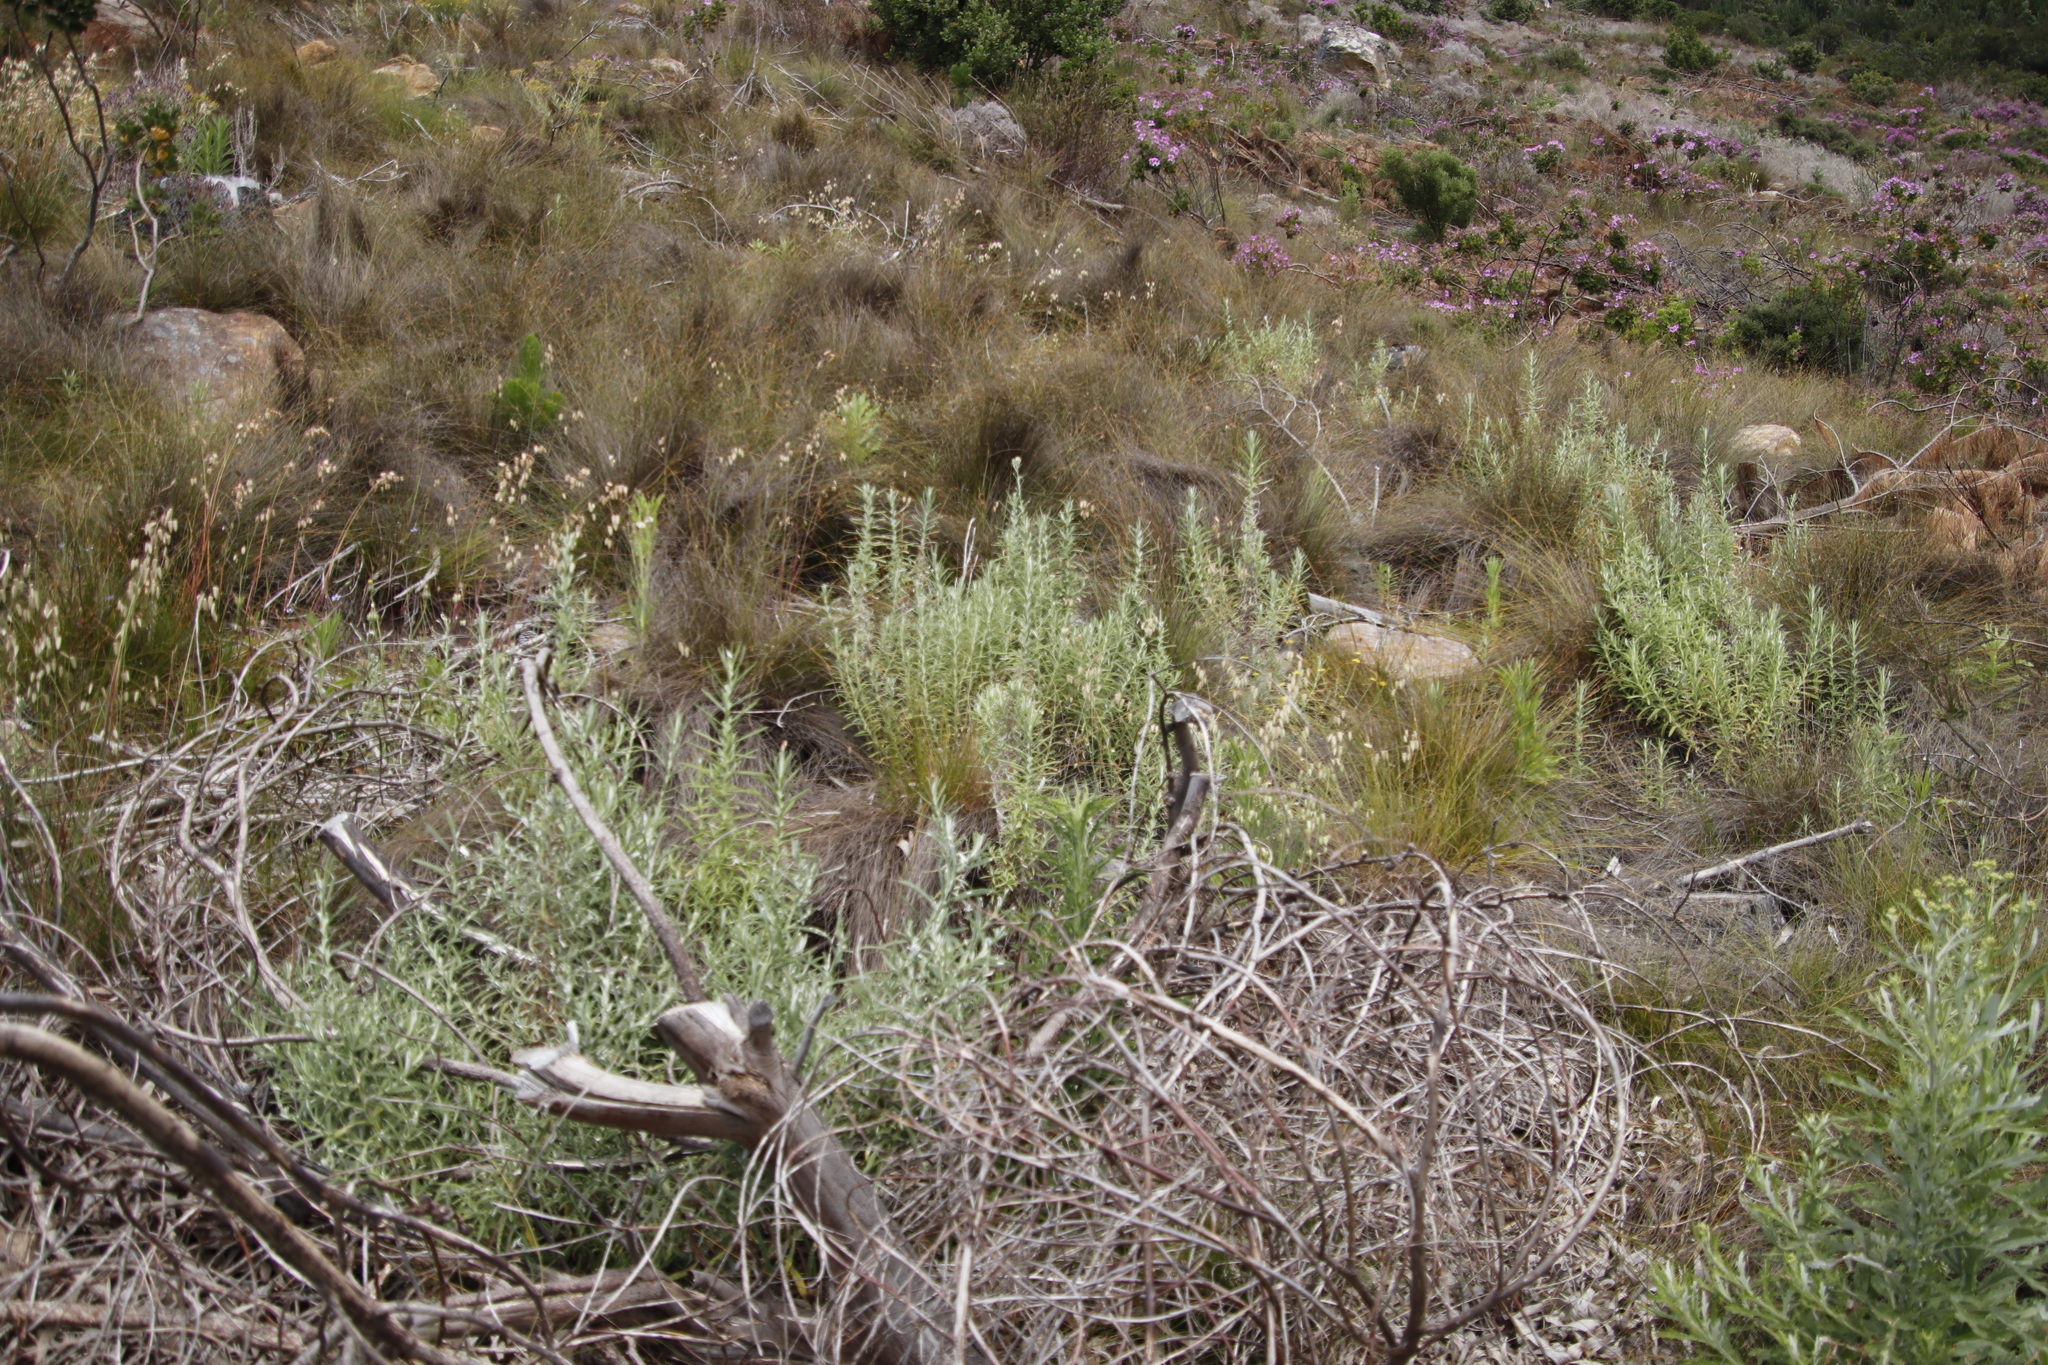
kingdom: Plantae
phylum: Tracheophyta
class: Magnoliopsida
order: Asterales
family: Asteraceae
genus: Metalasia
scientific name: Metalasia densa
